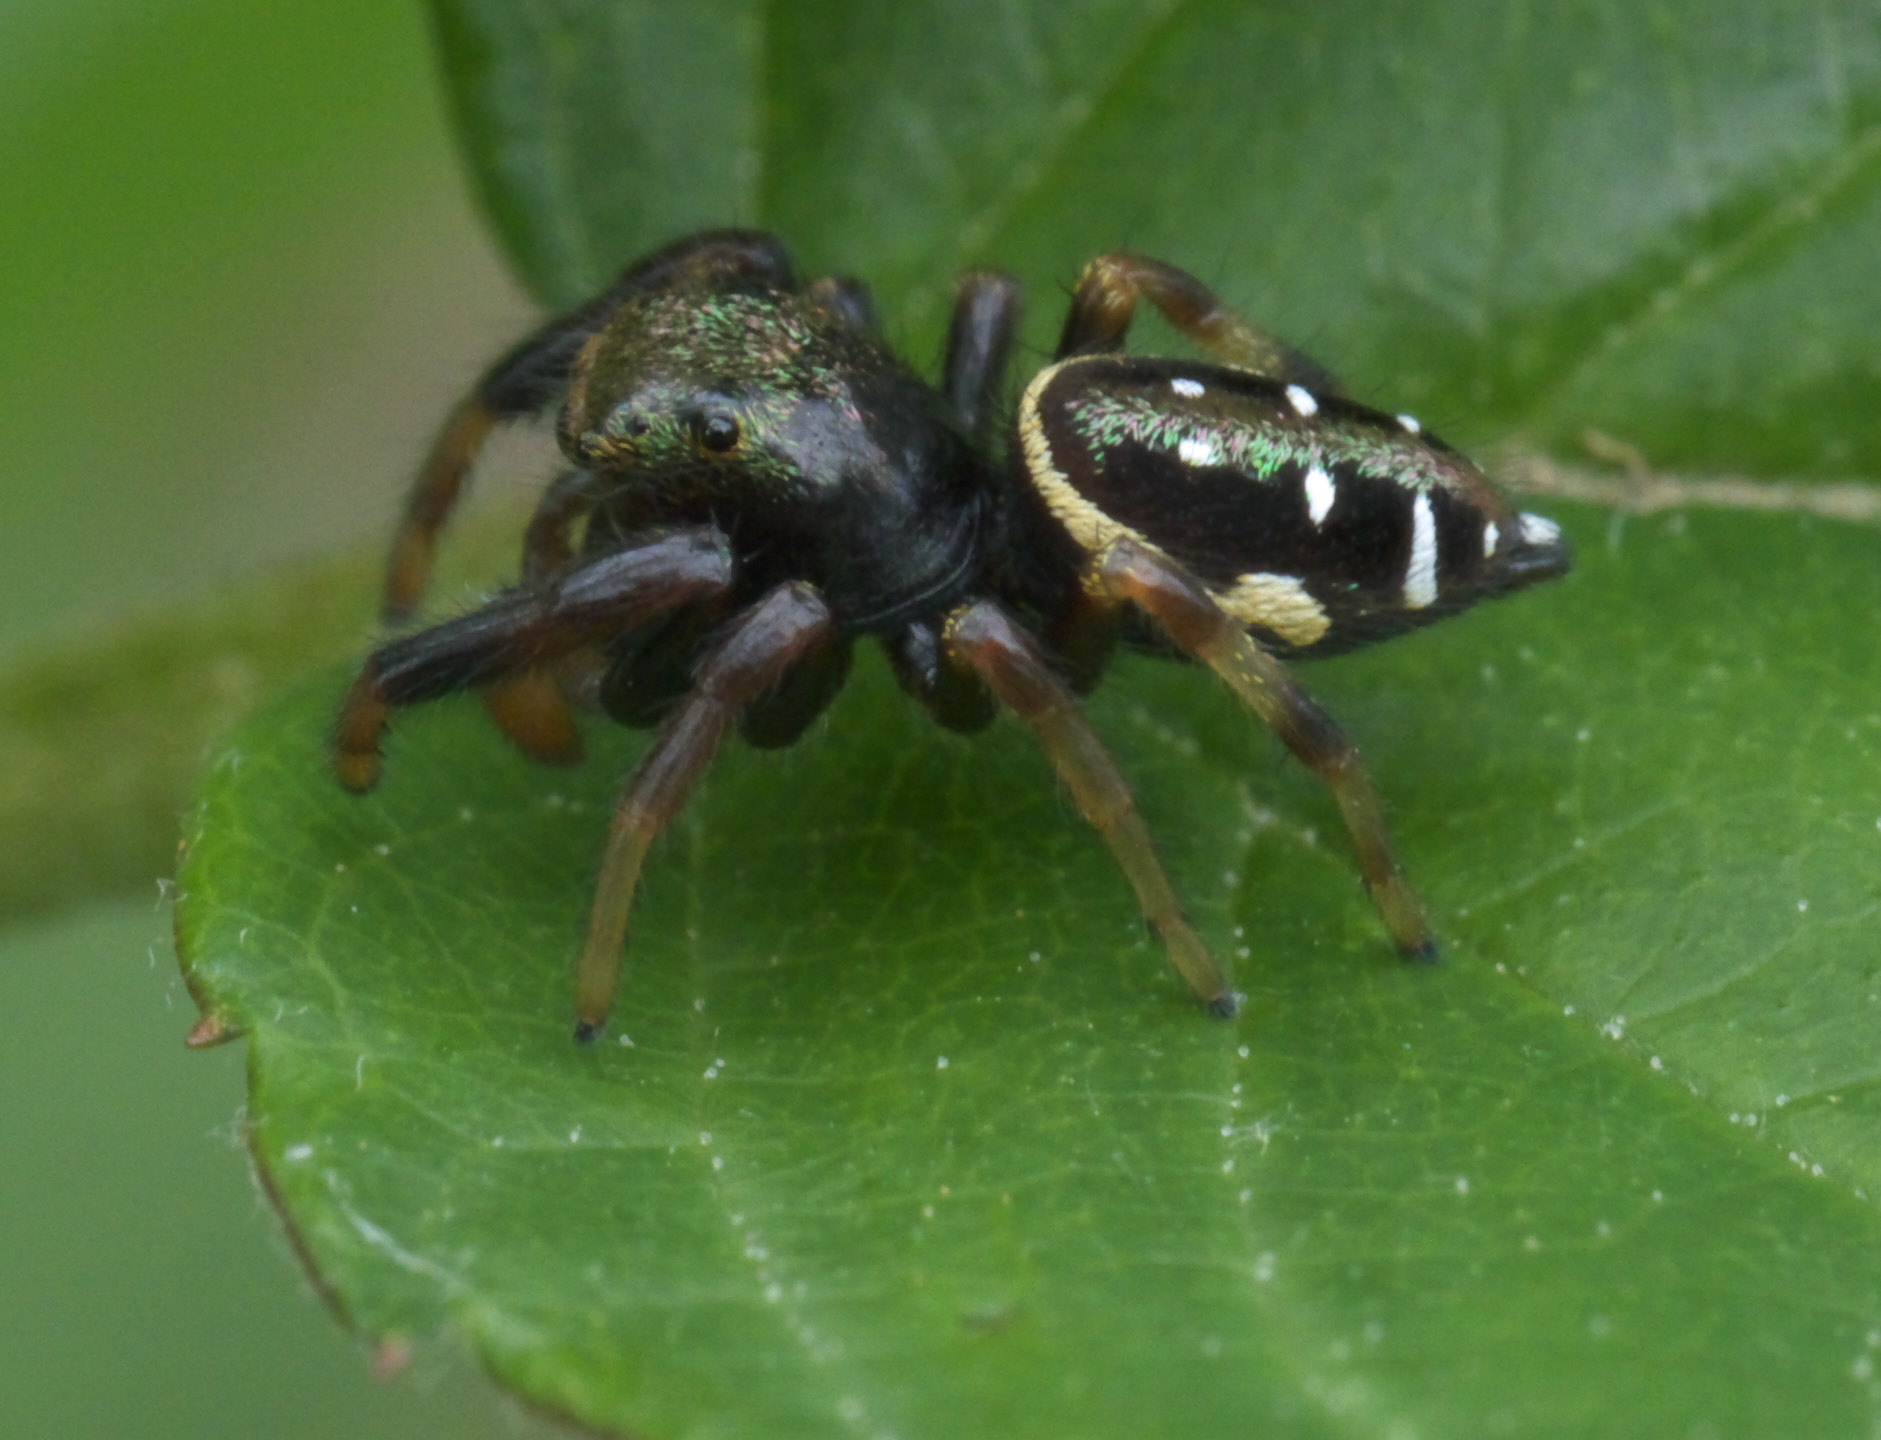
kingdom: Animalia
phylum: Arthropoda
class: Arachnida
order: Araneae
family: Salticidae
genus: Paraphidippus
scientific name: Paraphidippus aurantius
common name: Jumping spiders
